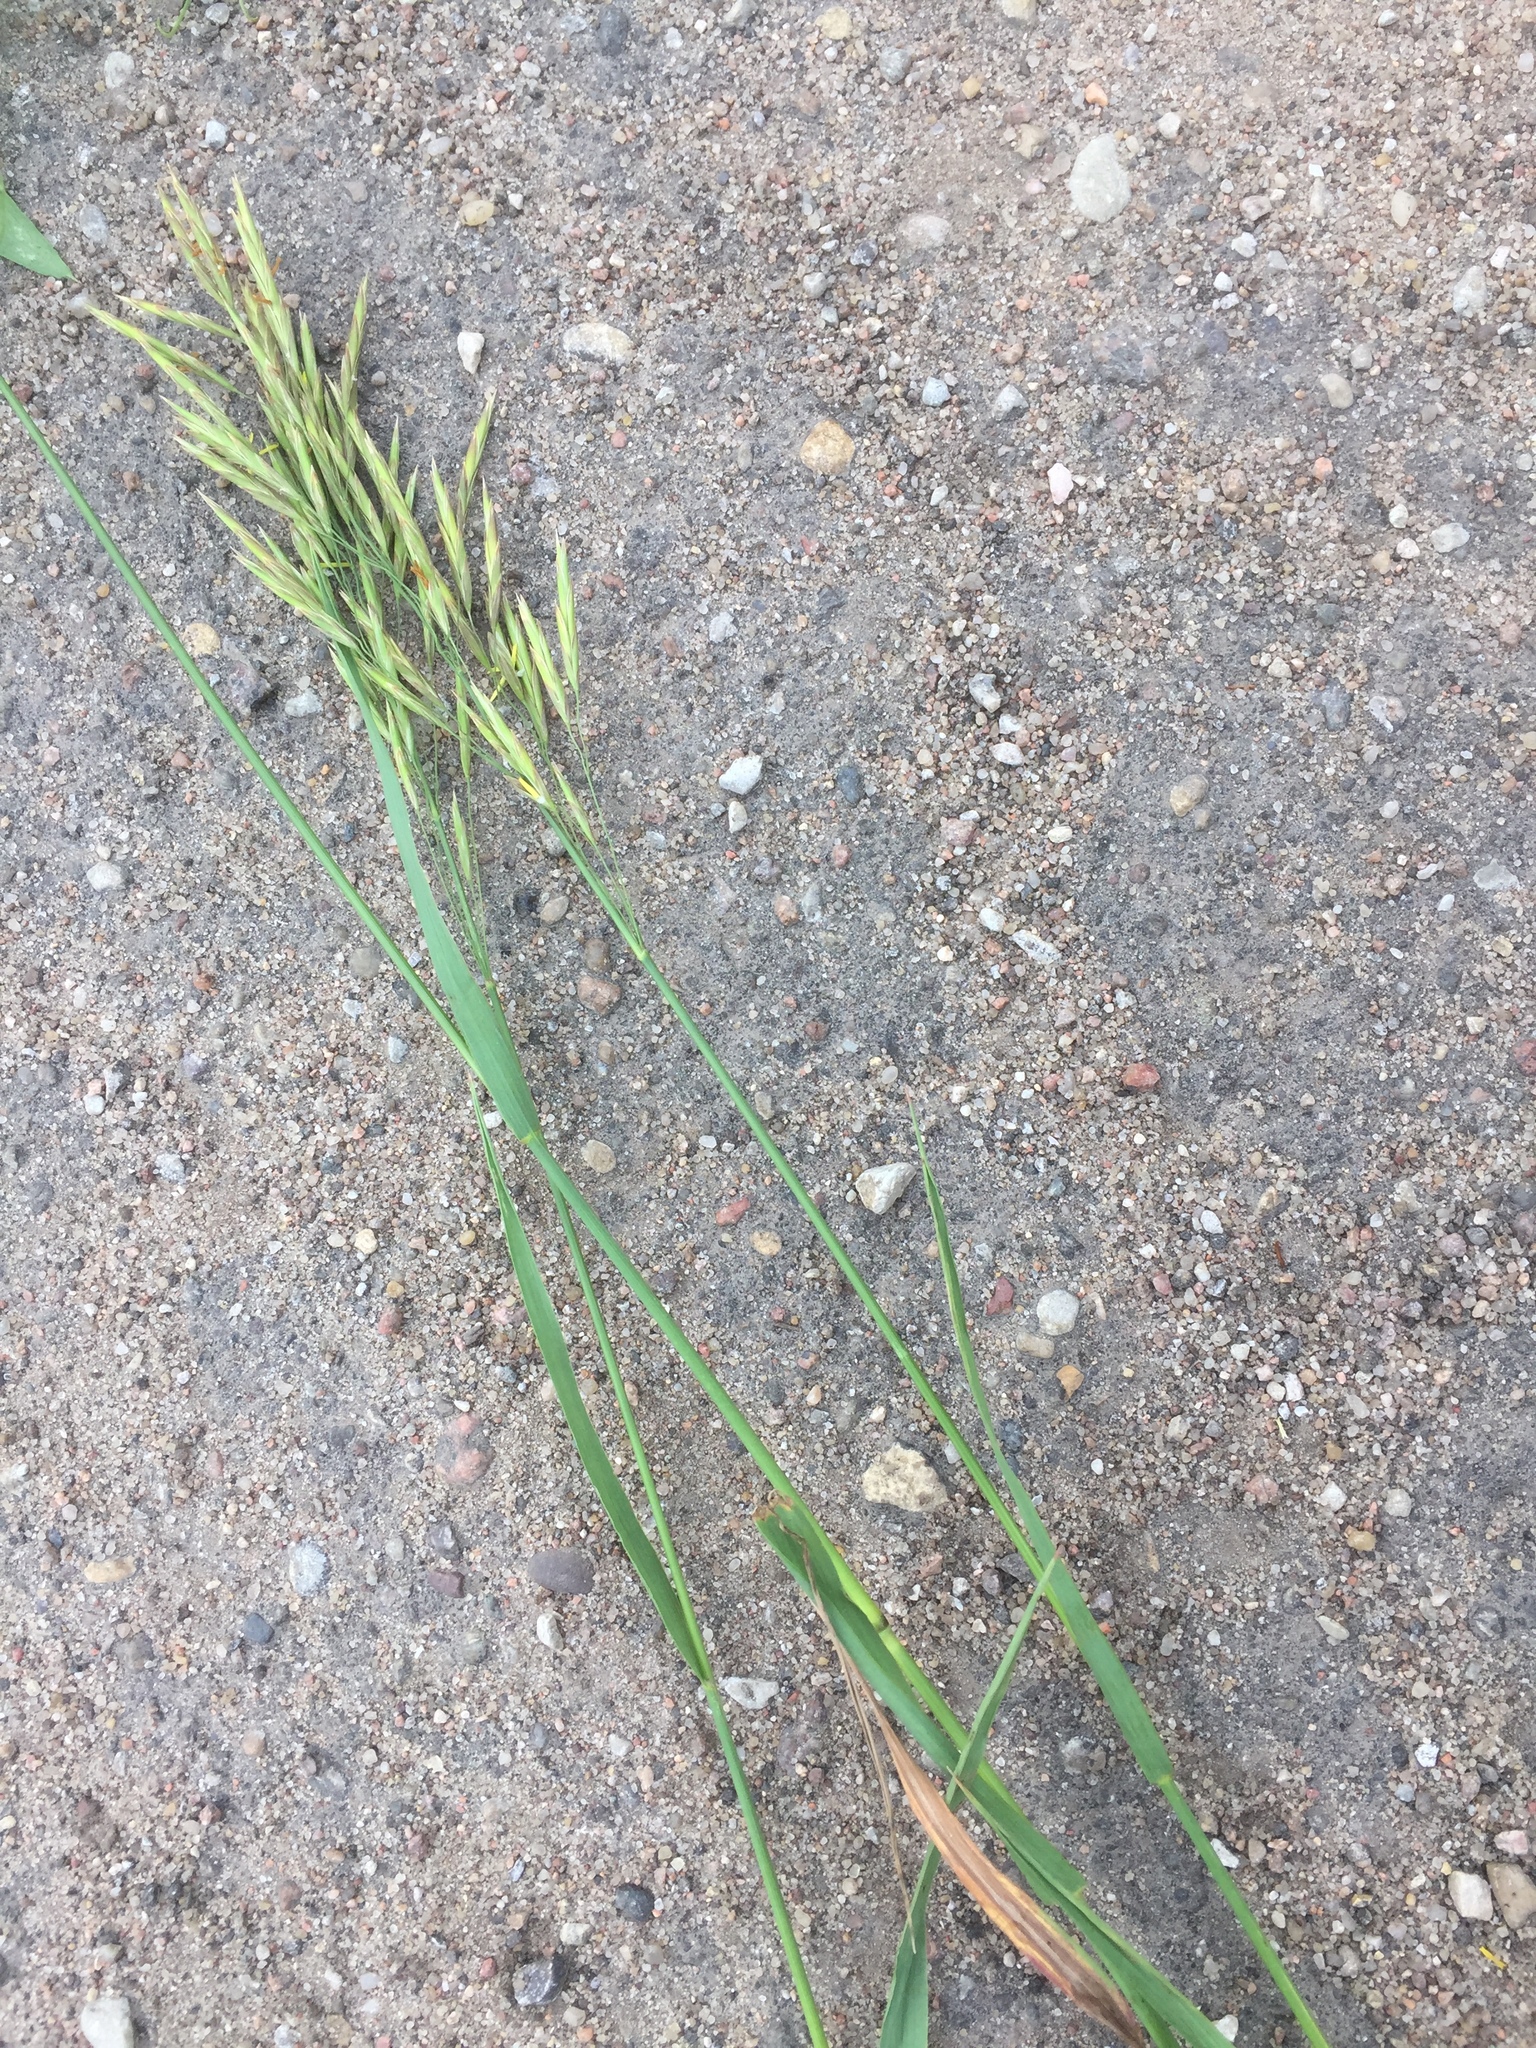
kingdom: Plantae
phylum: Tracheophyta
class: Liliopsida
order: Poales
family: Poaceae
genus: Bromus
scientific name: Bromus inermis
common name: Smooth brome
